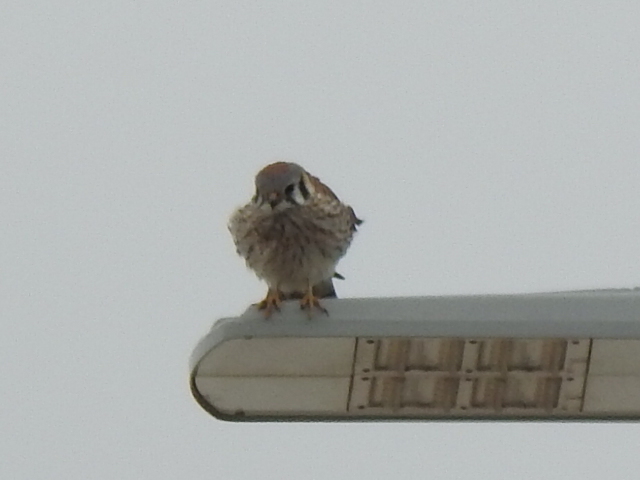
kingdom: Animalia
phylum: Chordata
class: Aves
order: Falconiformes
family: Falconidae
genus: Falco
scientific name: Falco sparverius
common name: American kestrel
